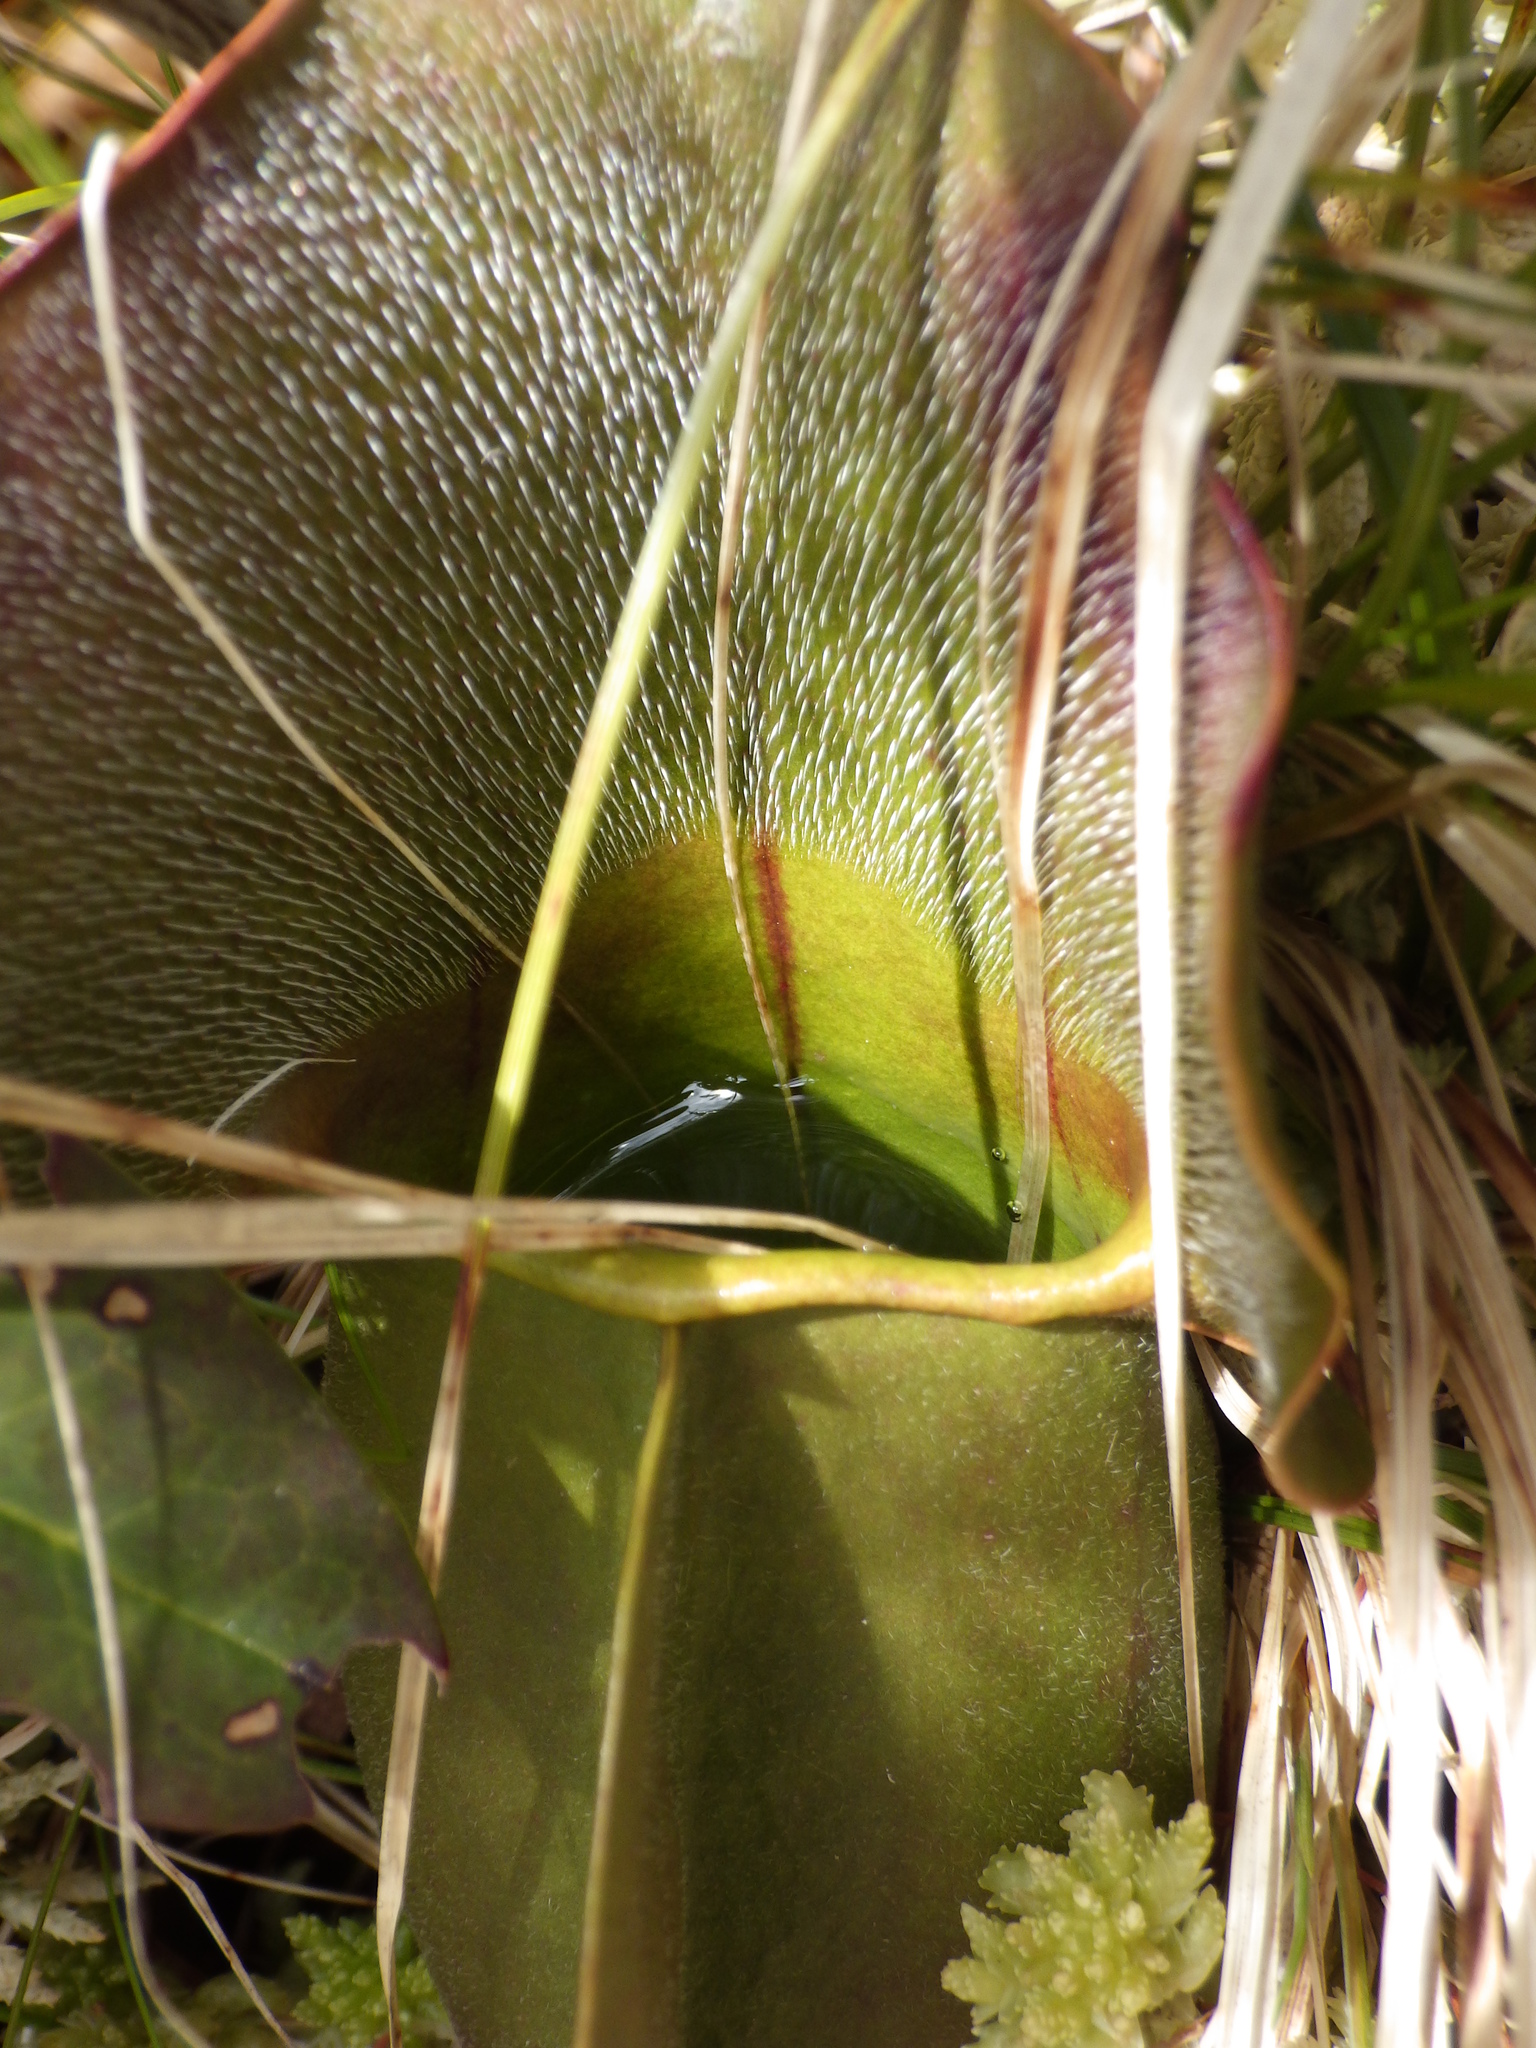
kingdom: Plantae
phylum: Tracheophyta
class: Magnoliopsida
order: Ericales
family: Sarraceniaceae
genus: Sarracenia
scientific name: Sarracenia purpurea
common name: Pitcherplant
